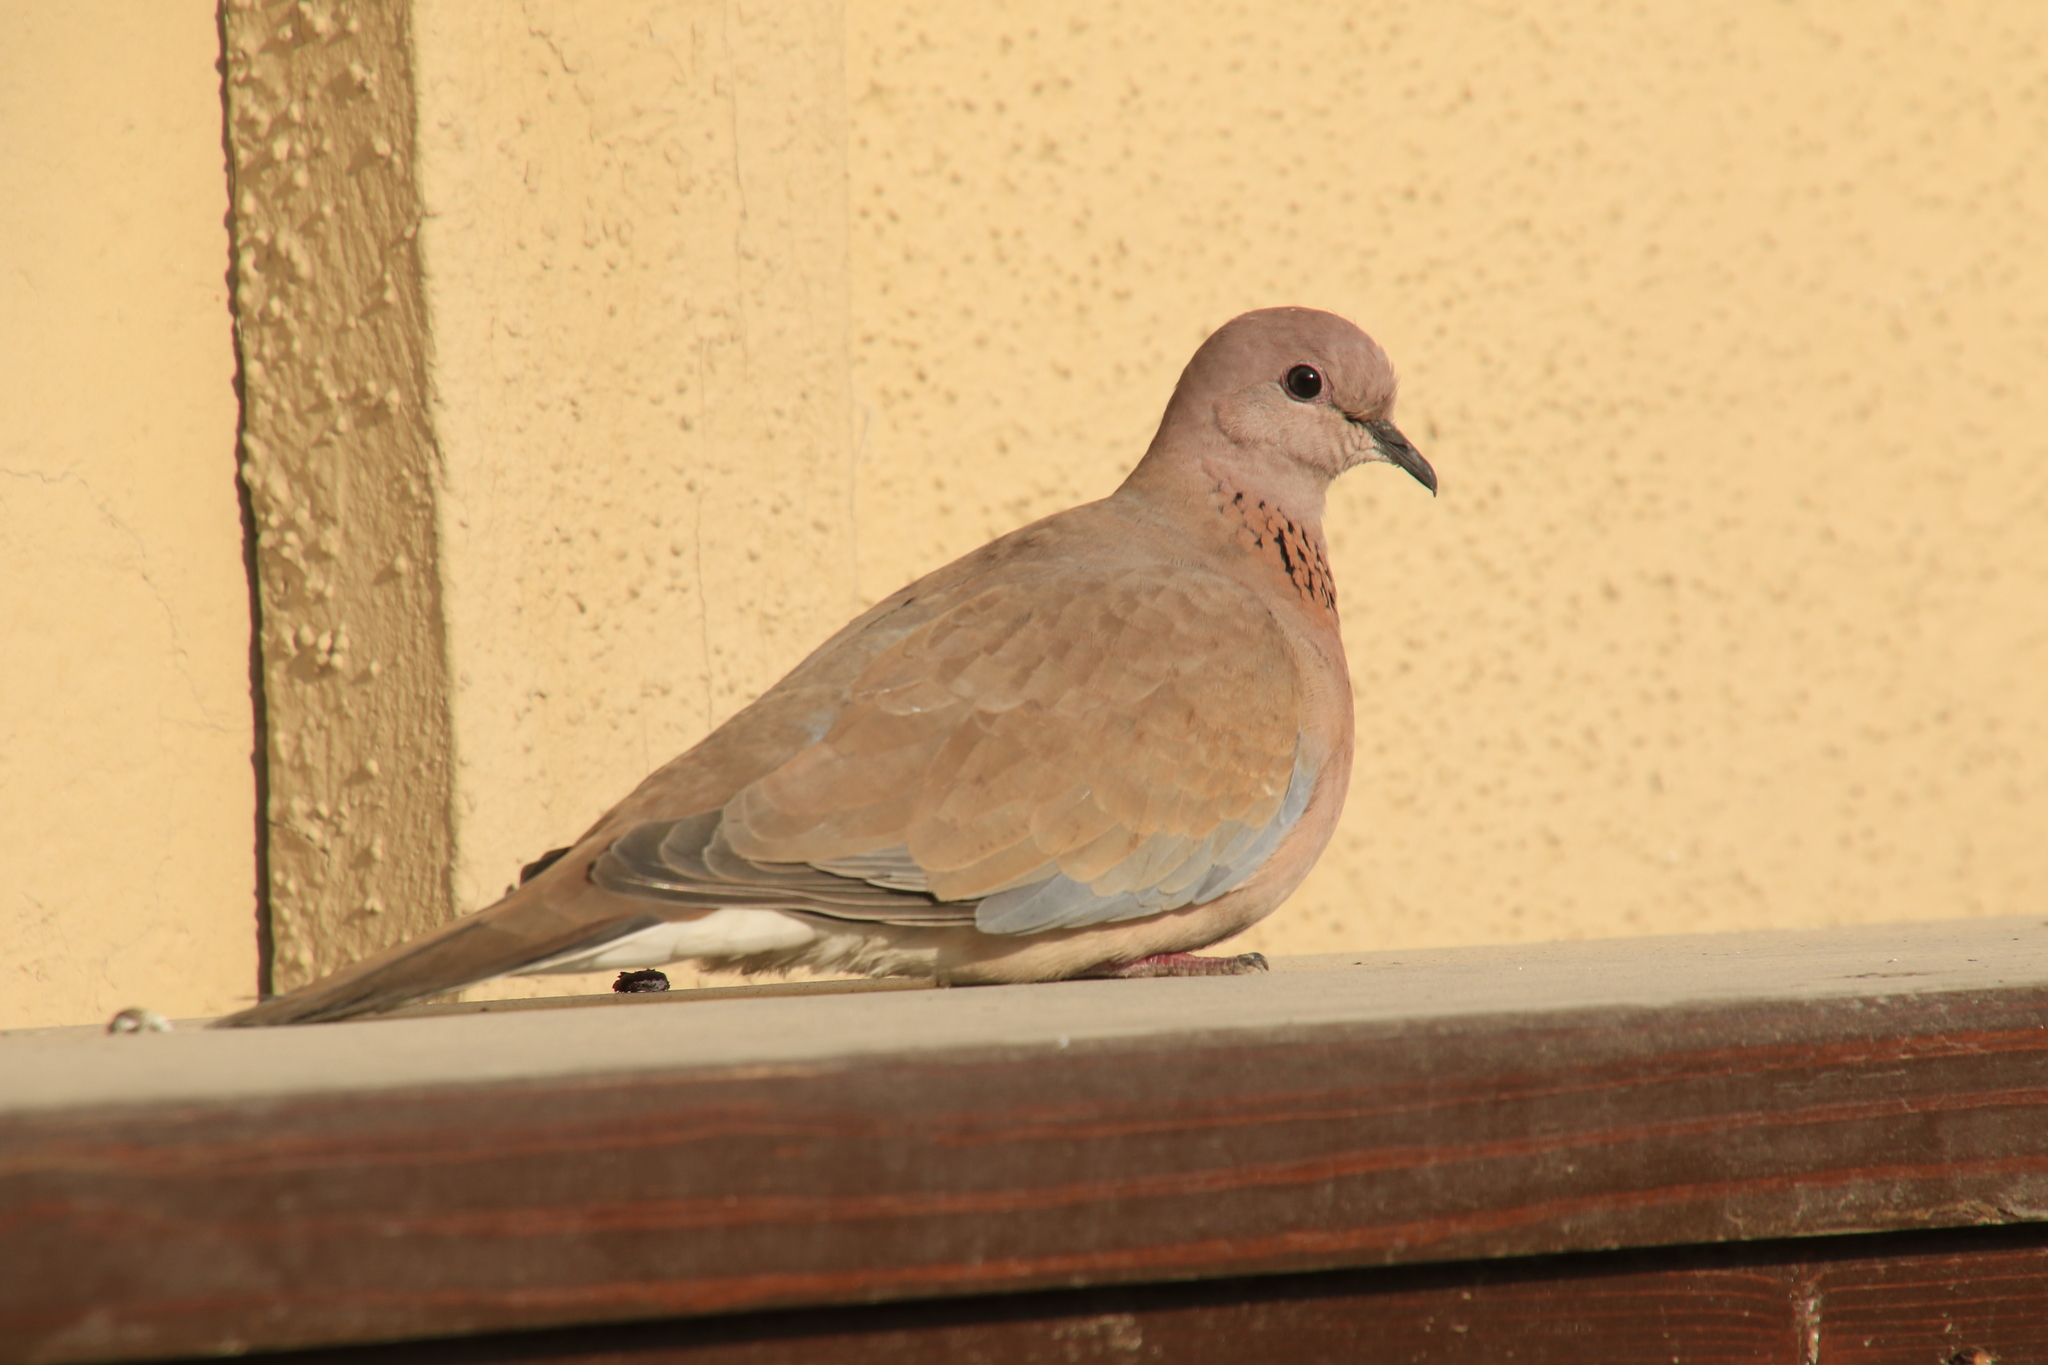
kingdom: Animalia
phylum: Chordata
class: Aves
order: Columbiformes
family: Columbidae
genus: Spilopelia
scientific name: Spilopelia senegalensis
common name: Laughing dove
